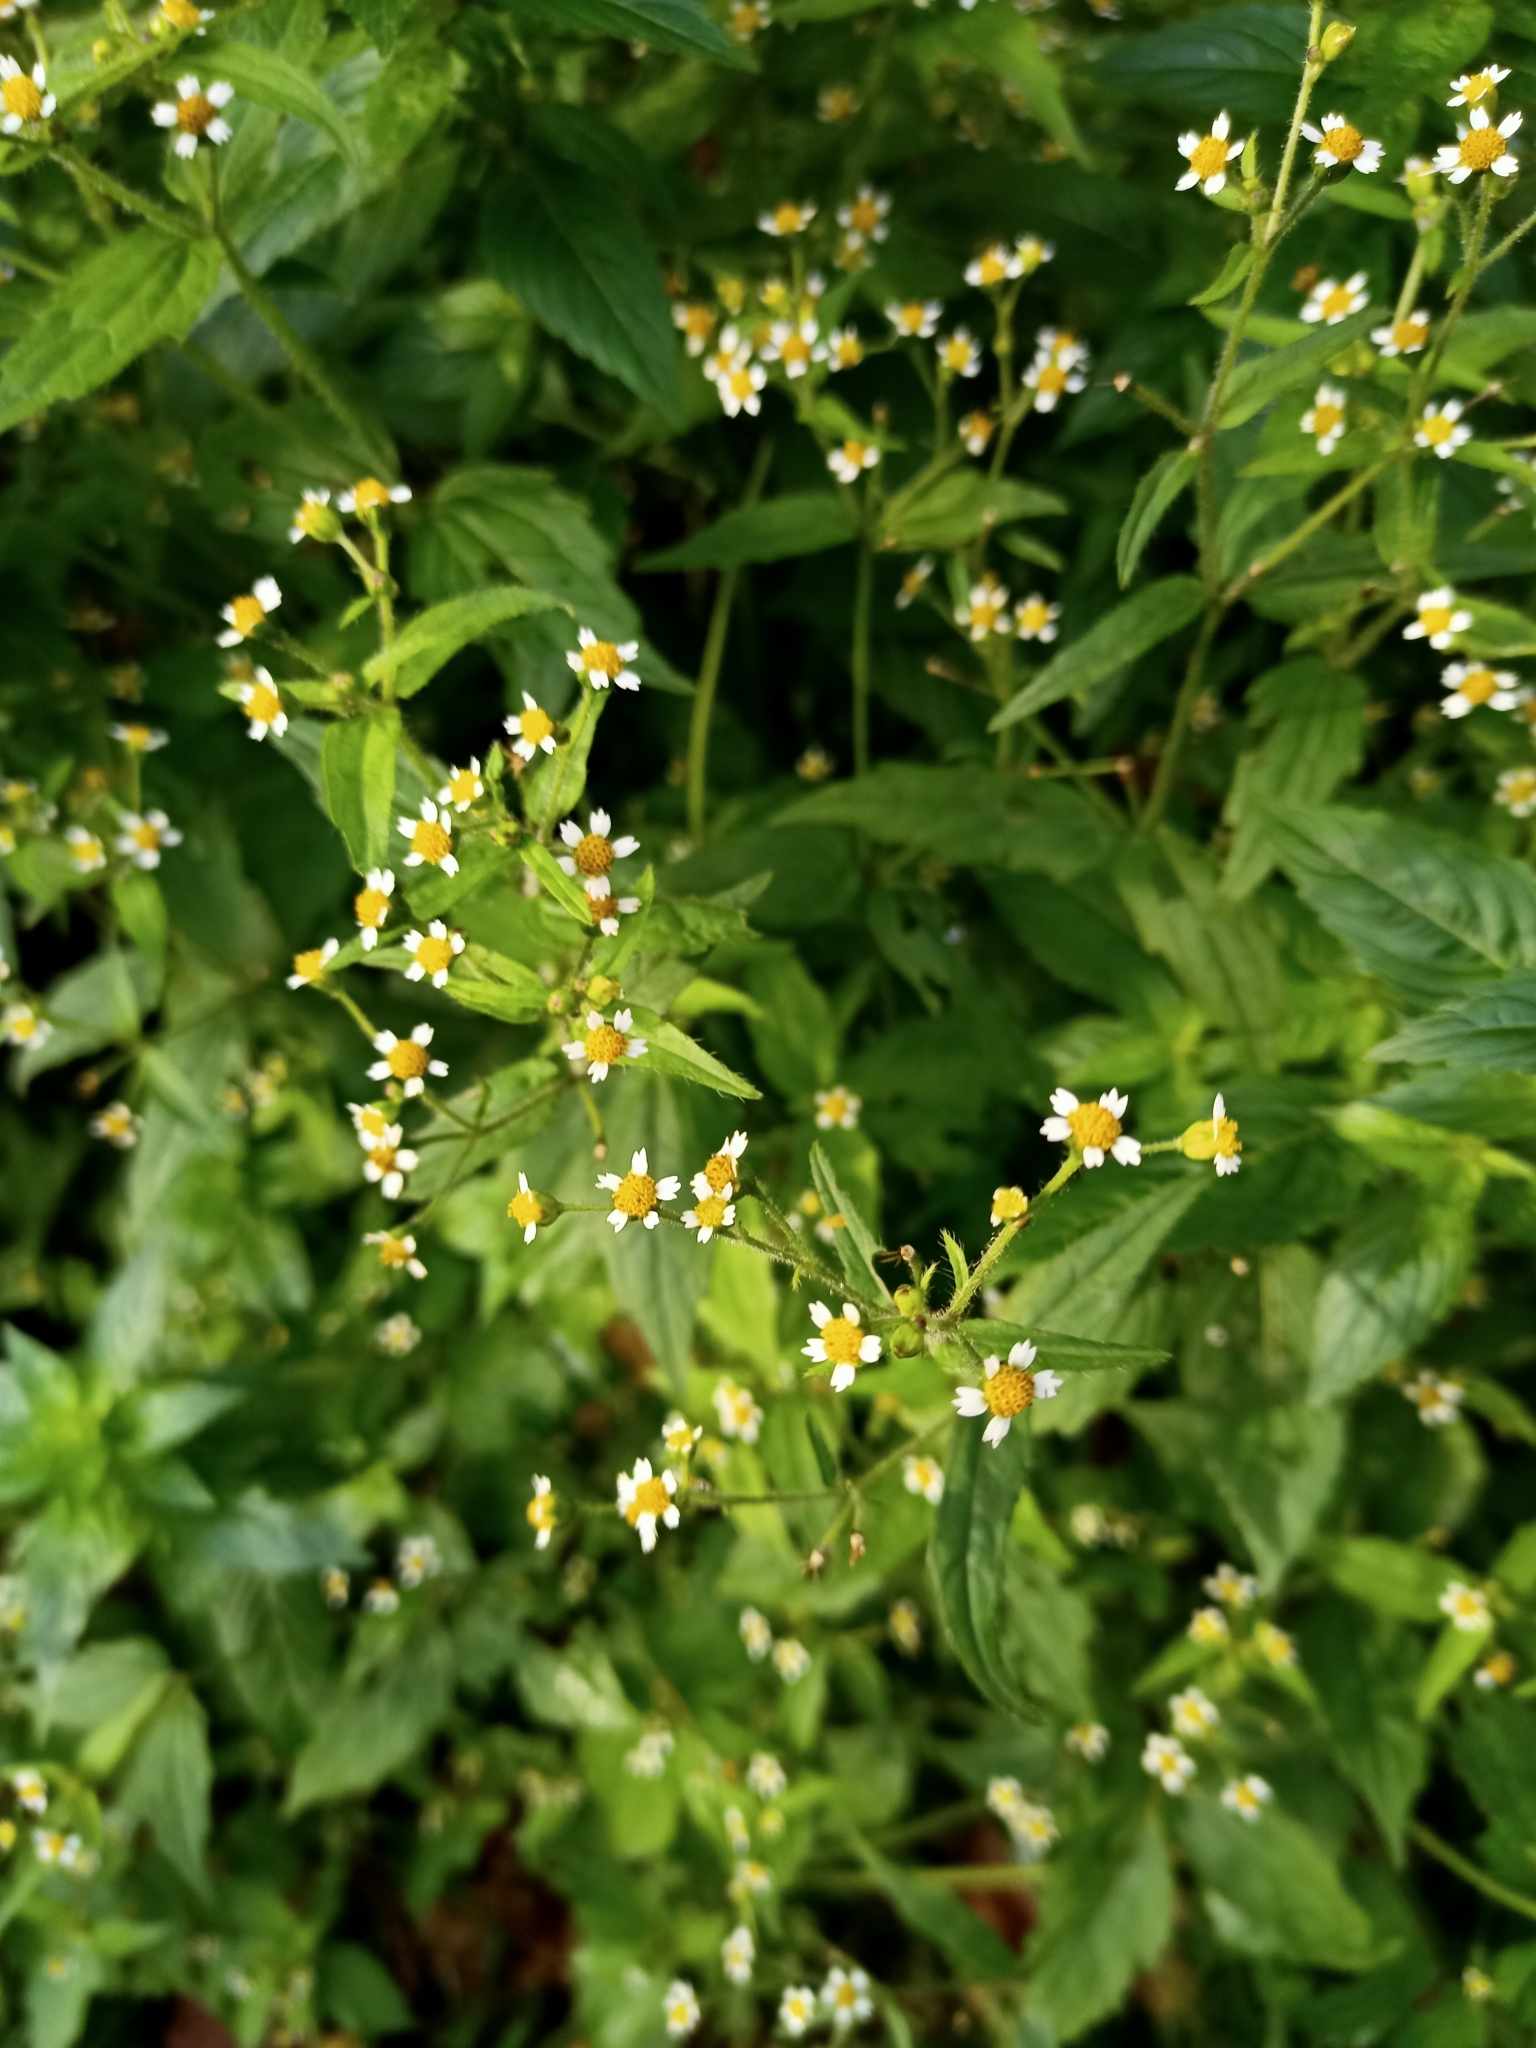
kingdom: Plantae
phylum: Tracheophyta
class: Magnoliopsida
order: Asterales
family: Asteraceae
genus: Galinsoga
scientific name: Galinsoga quadriradiata
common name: Shaggy soldier
